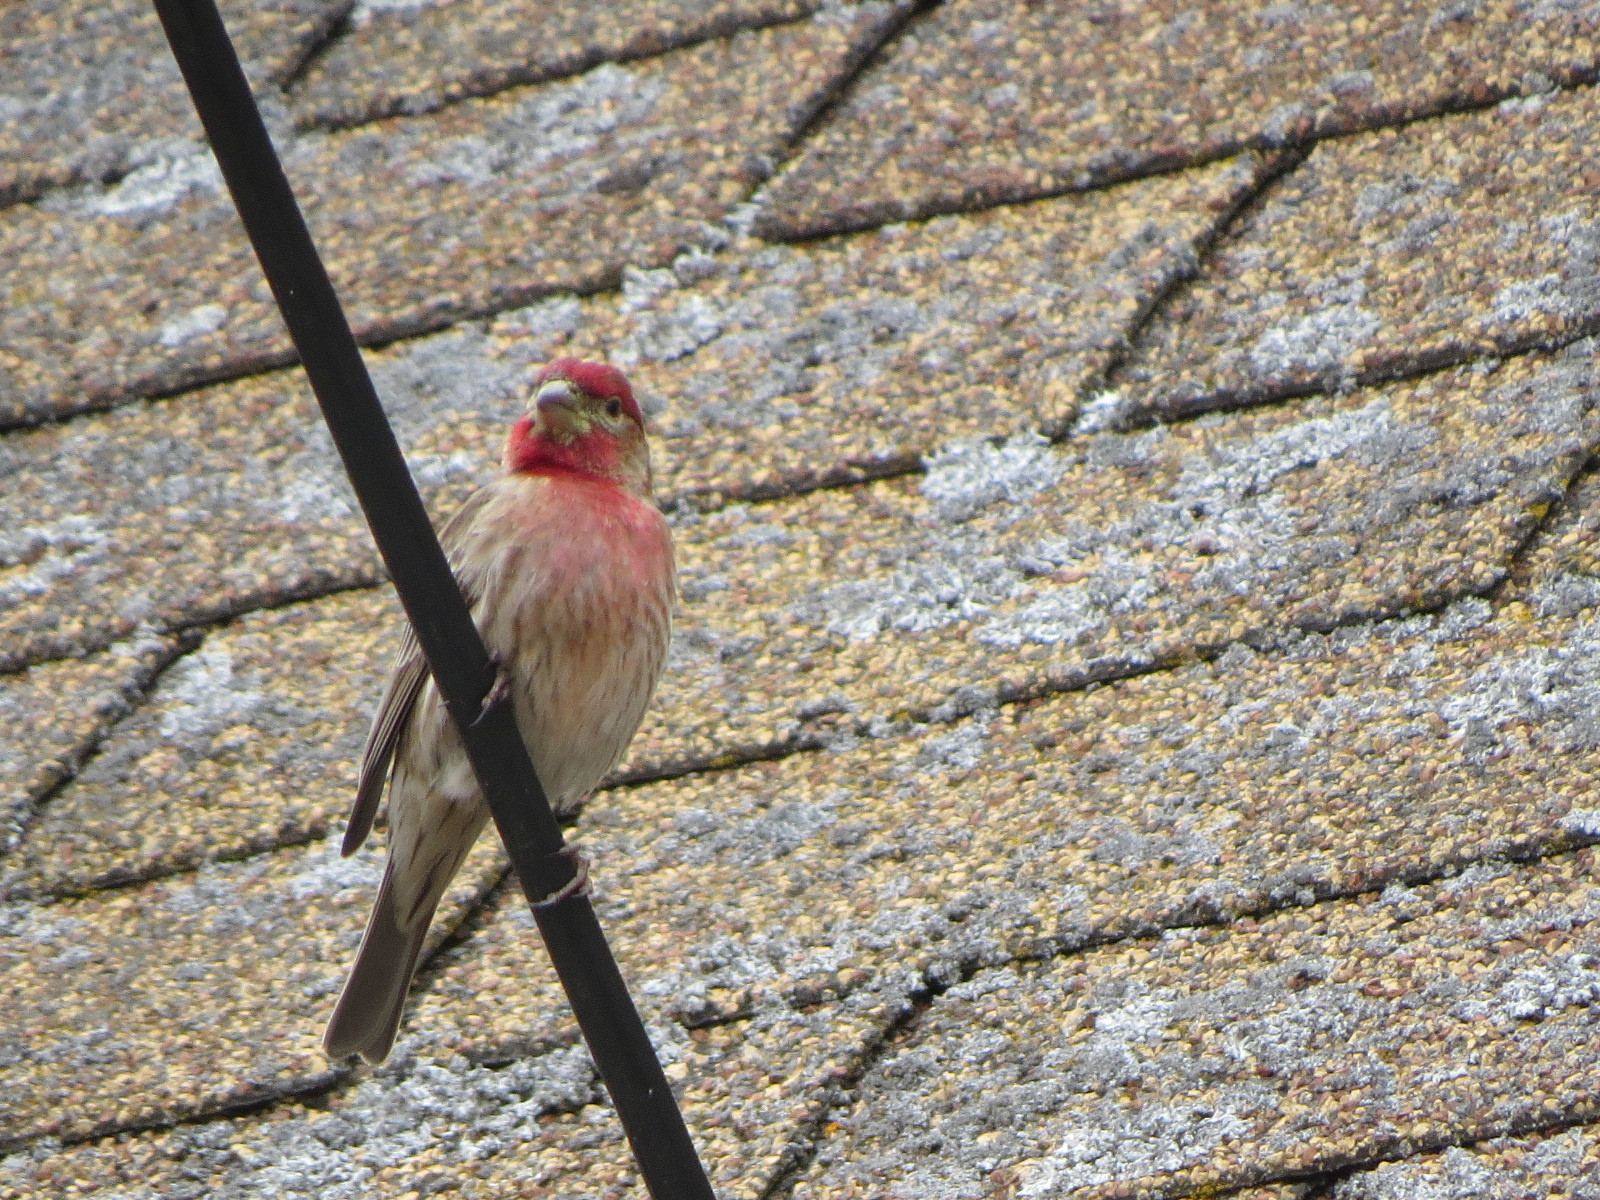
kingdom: Animalia
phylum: Chordata
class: Aves
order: Passeriformes
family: Fringillidae
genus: Haemorhous
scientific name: Haemorhous mexicanus
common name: House finch
